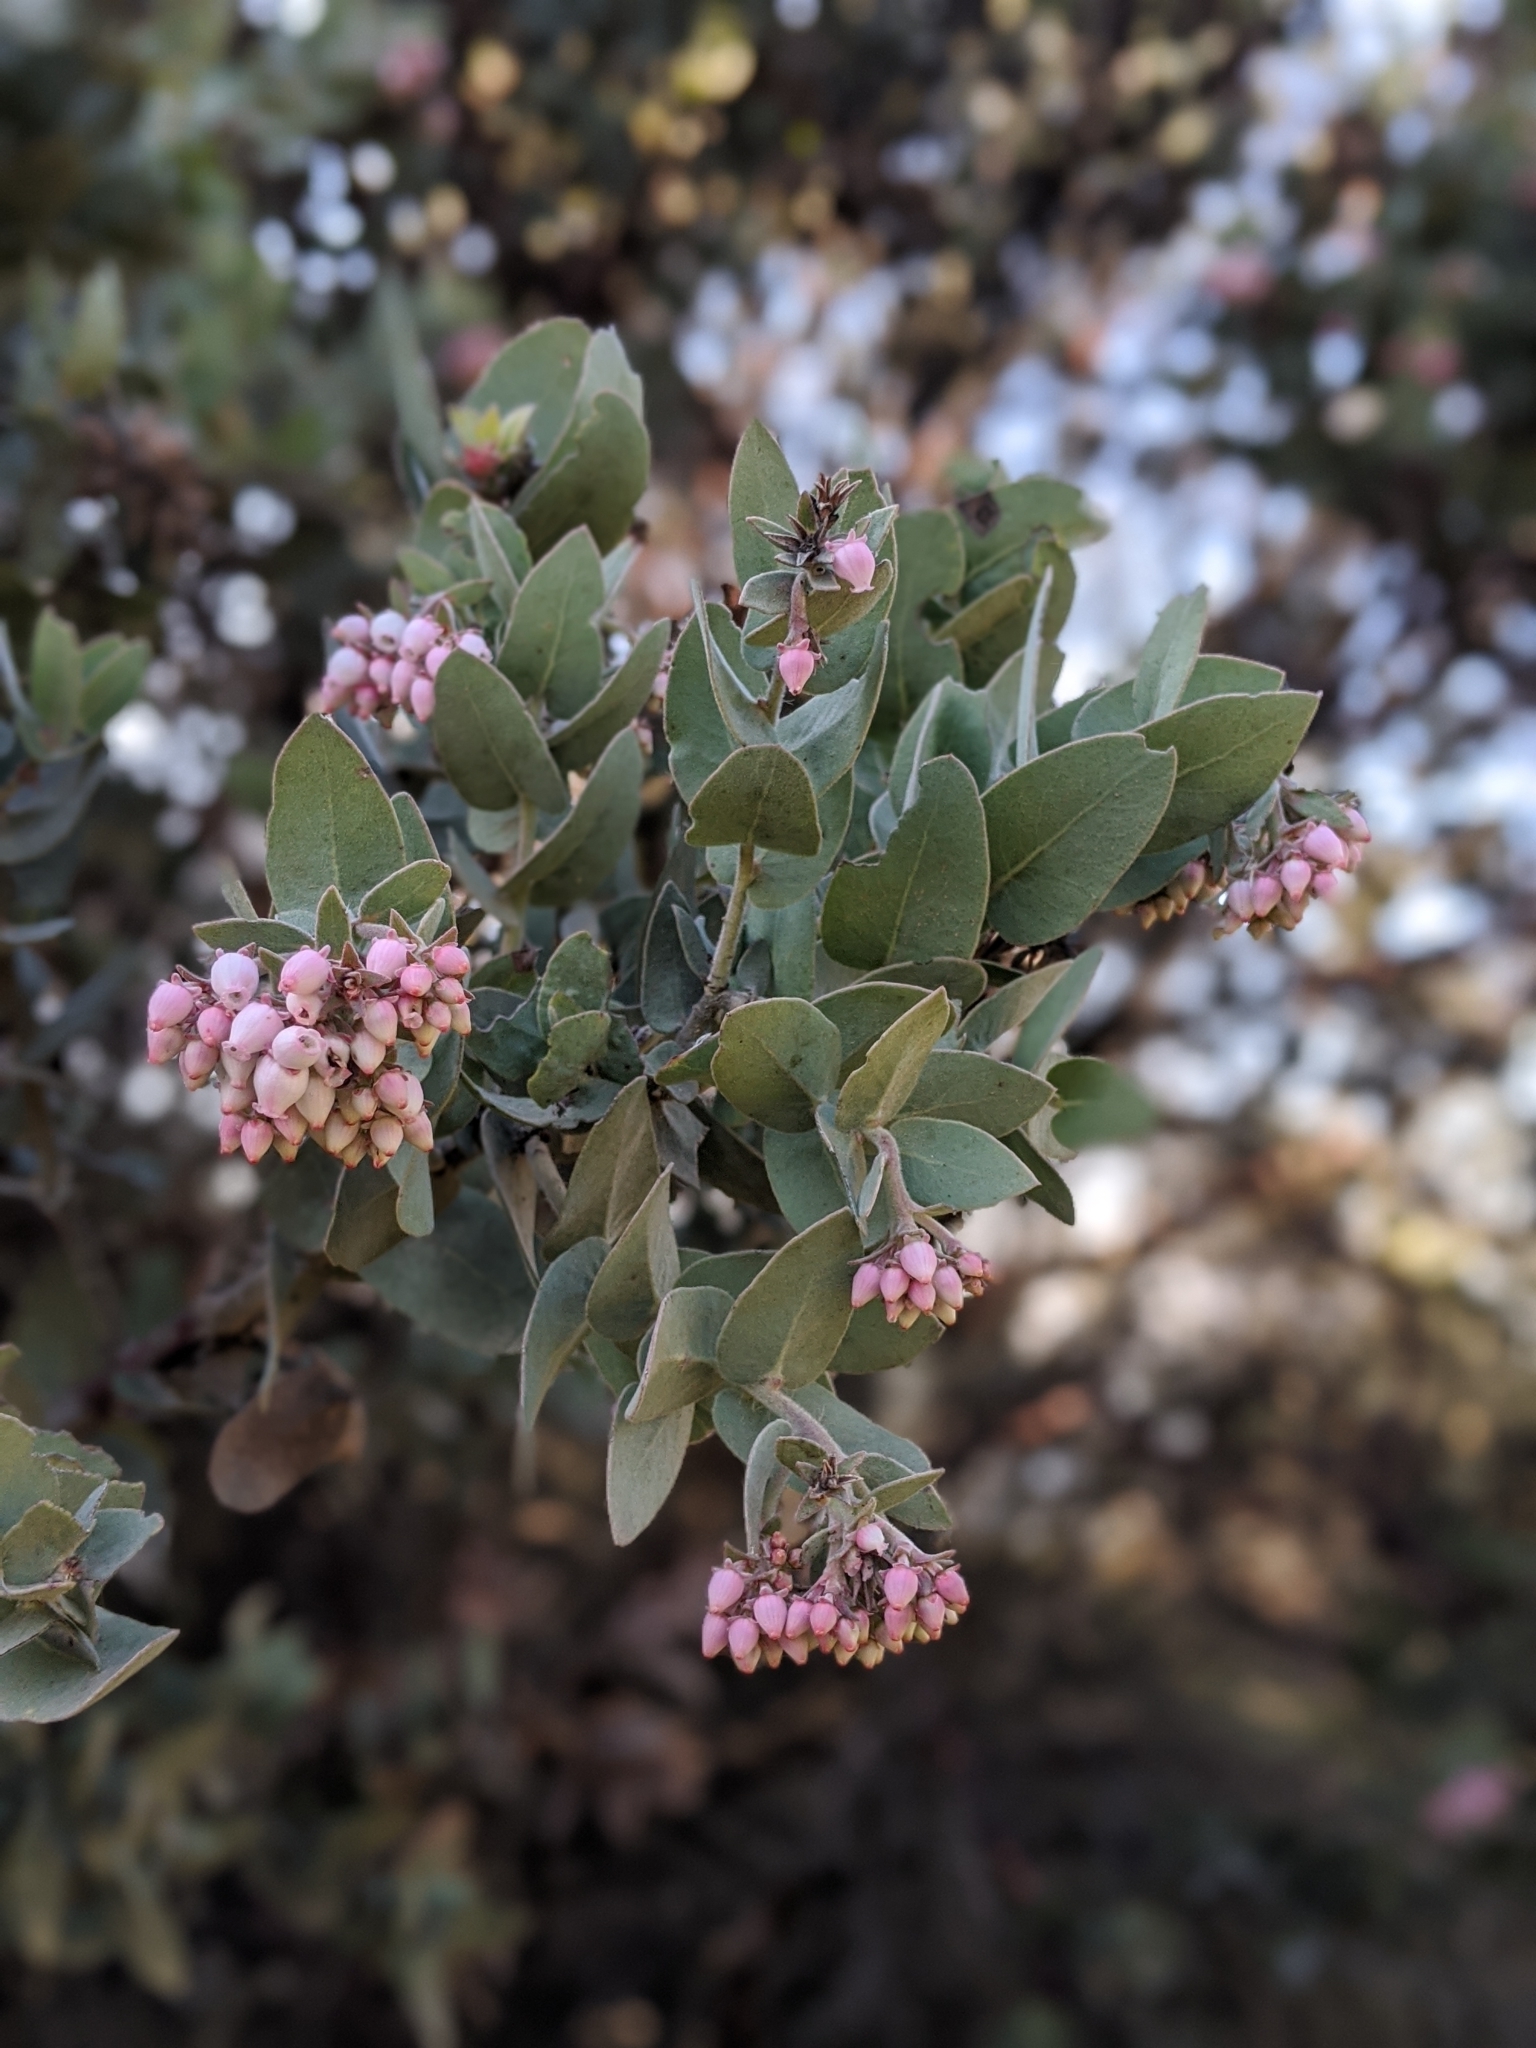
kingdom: Plantae
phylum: Tracheophyta
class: Magnoliopsida
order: Ericales
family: Ericaceae
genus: Arctostaphylos
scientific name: Arctostaphylos auriculata
